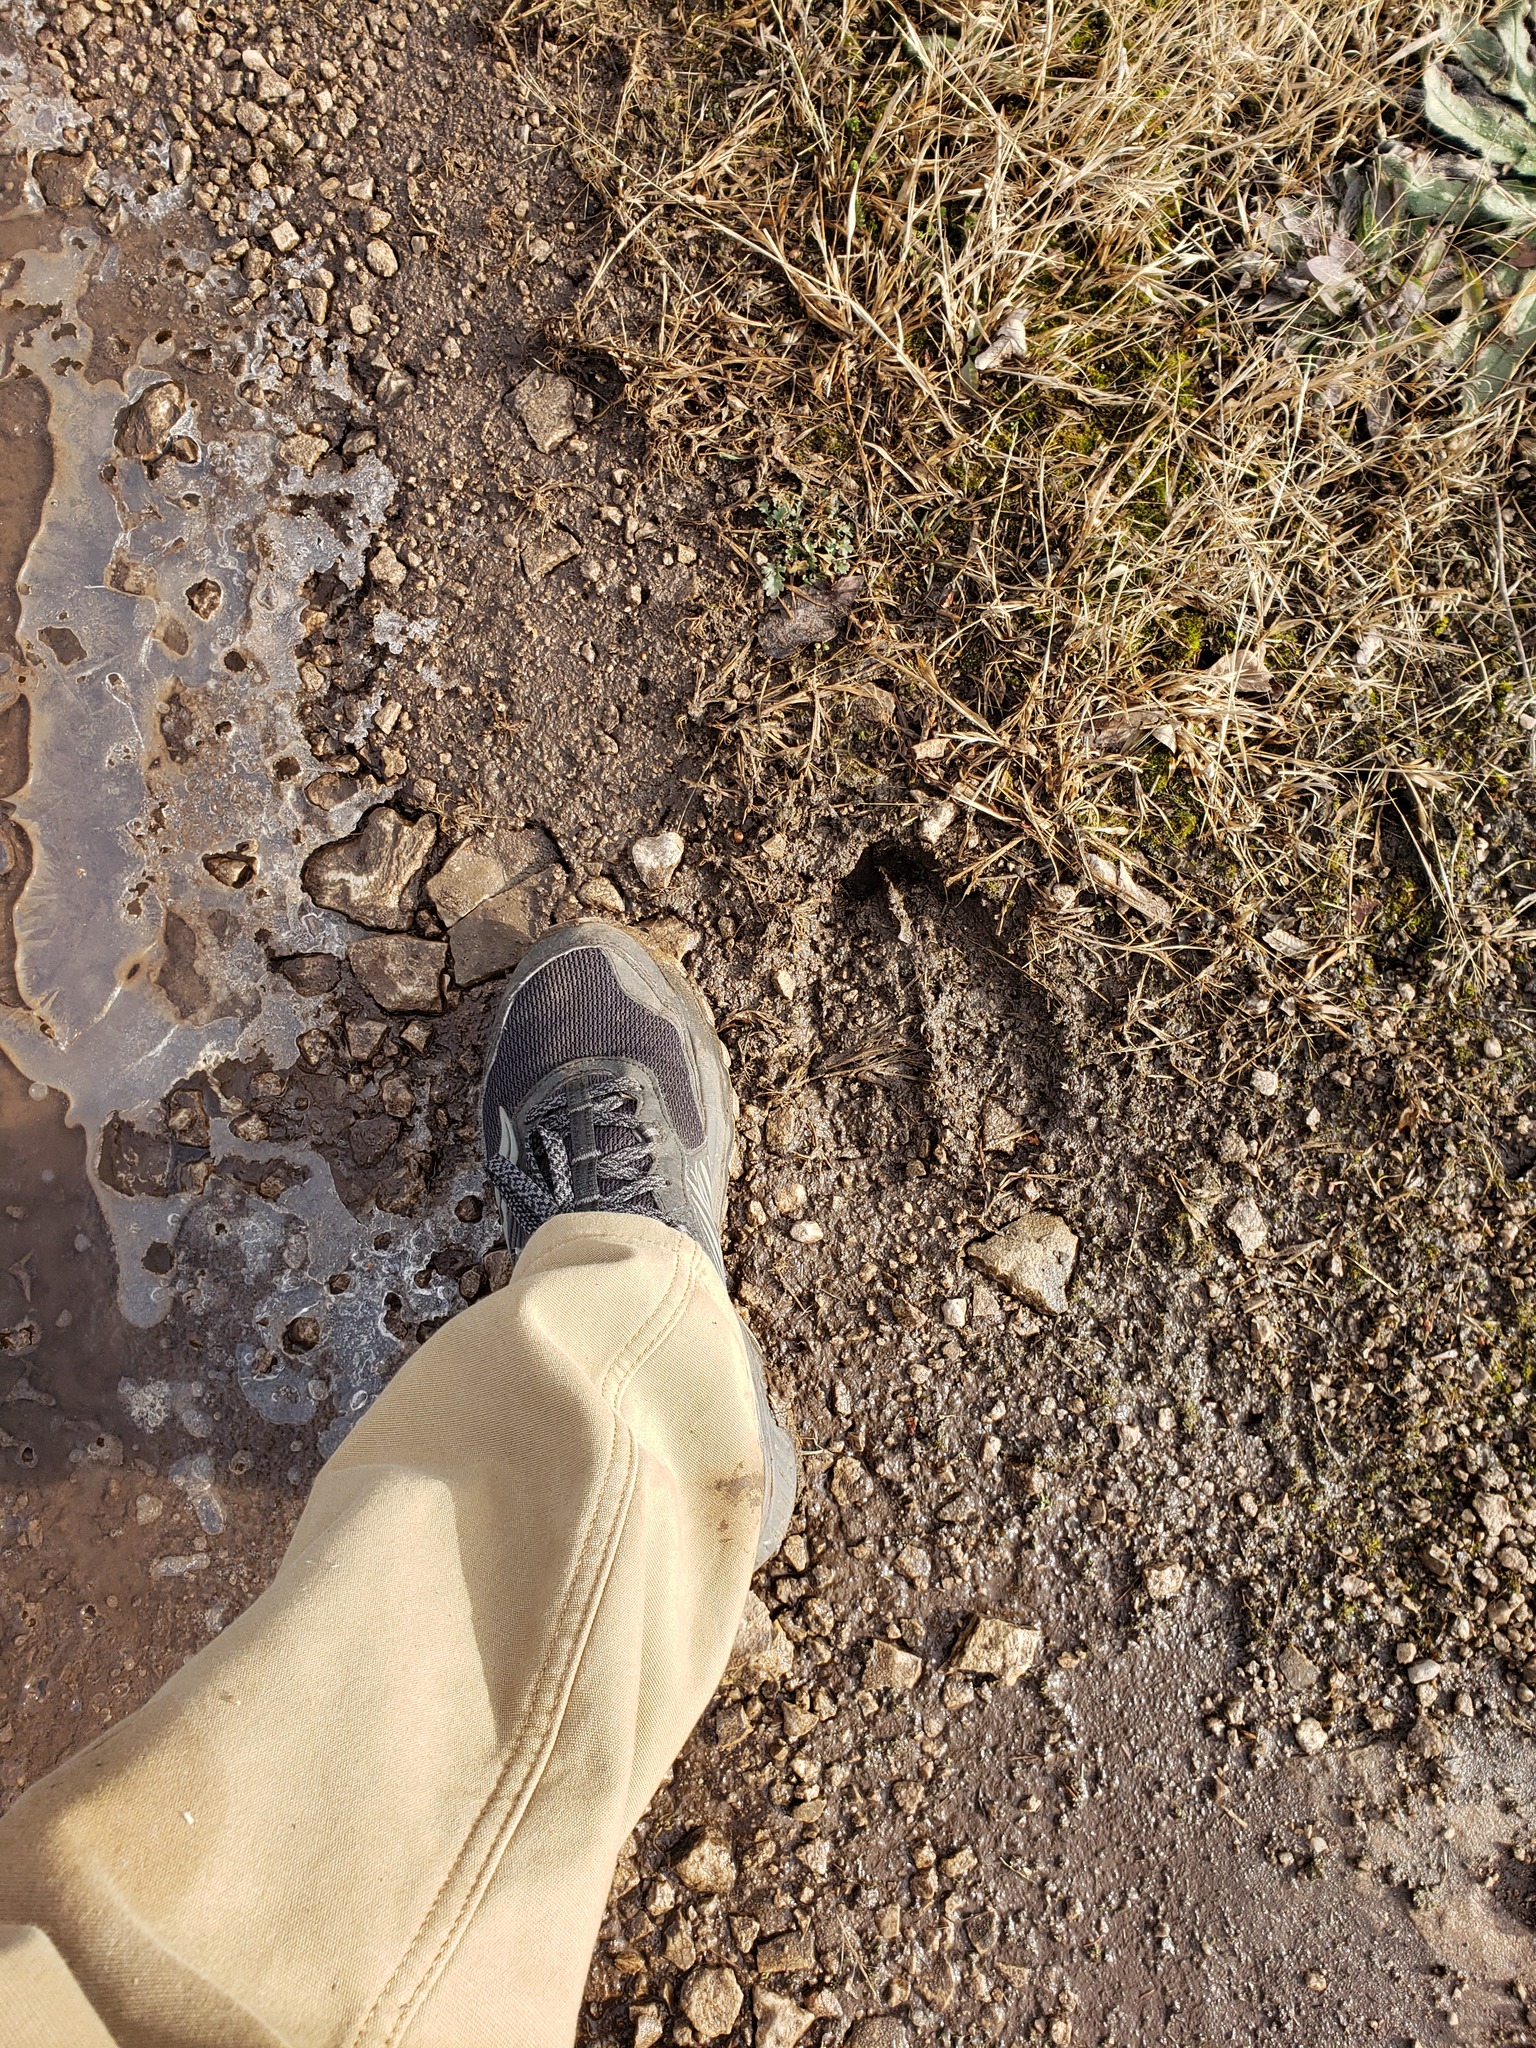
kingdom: Animalia
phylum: Chordata
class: Mammalia
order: Artiodactyla
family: Cervidae
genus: Alces
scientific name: Alces alces
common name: Moose
